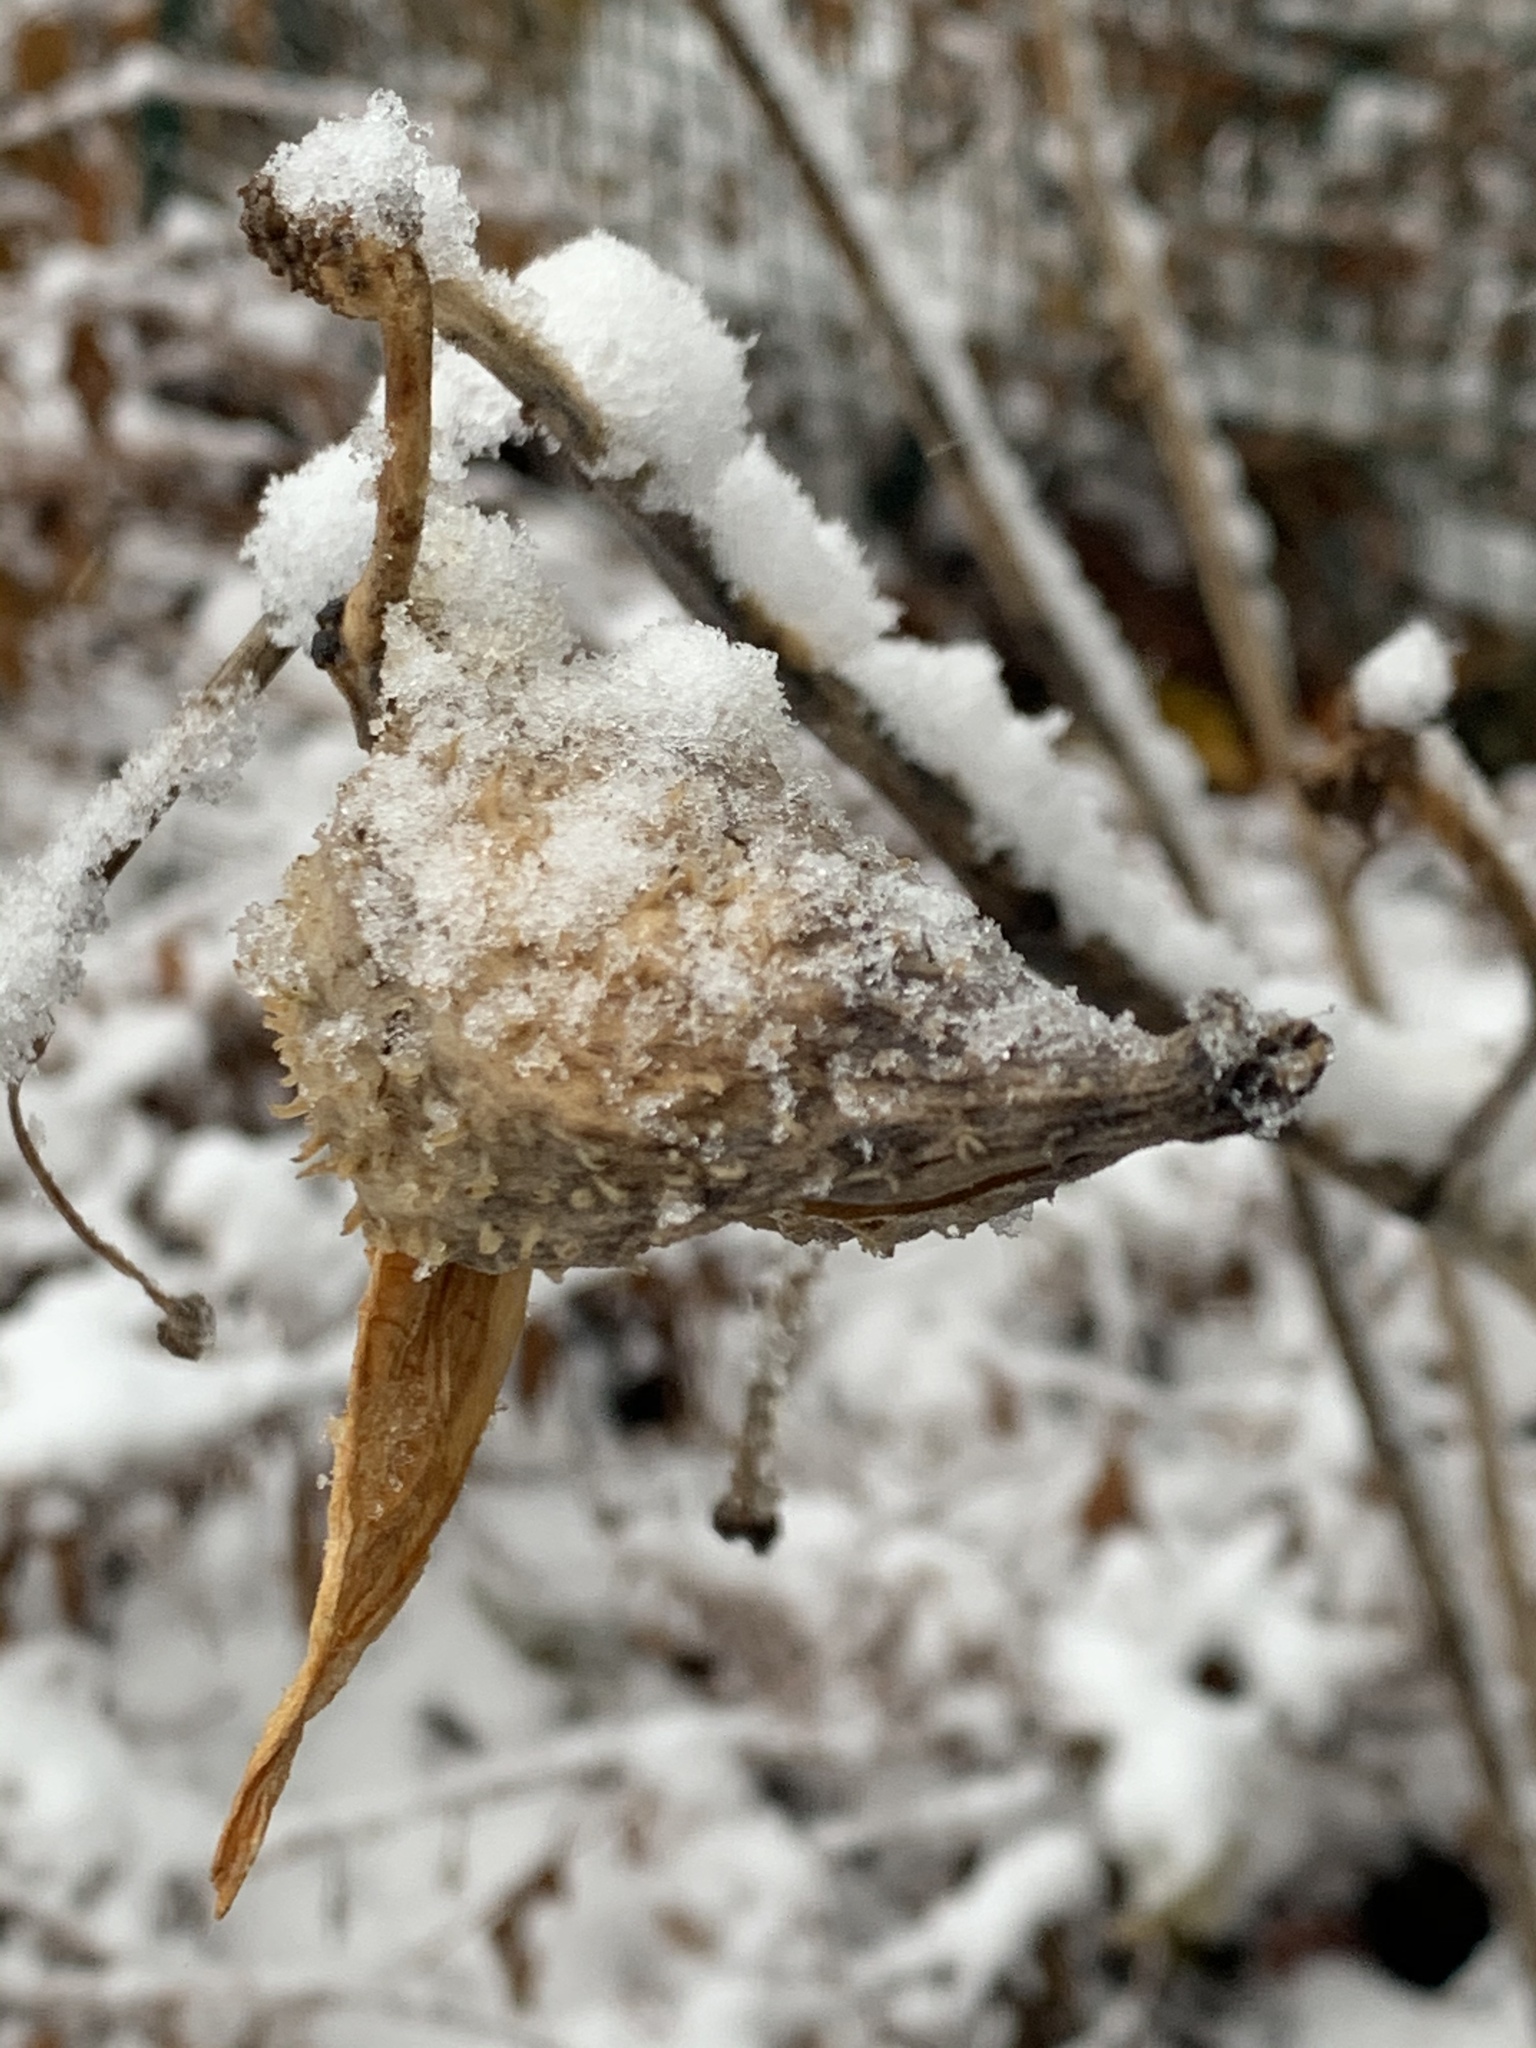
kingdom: Plantae
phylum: Tracheophyta
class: Magnoliopsida
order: Gentianales
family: Apocynaceae
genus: Asclepias
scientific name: Asclepias syriaca
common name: Common milkweed
